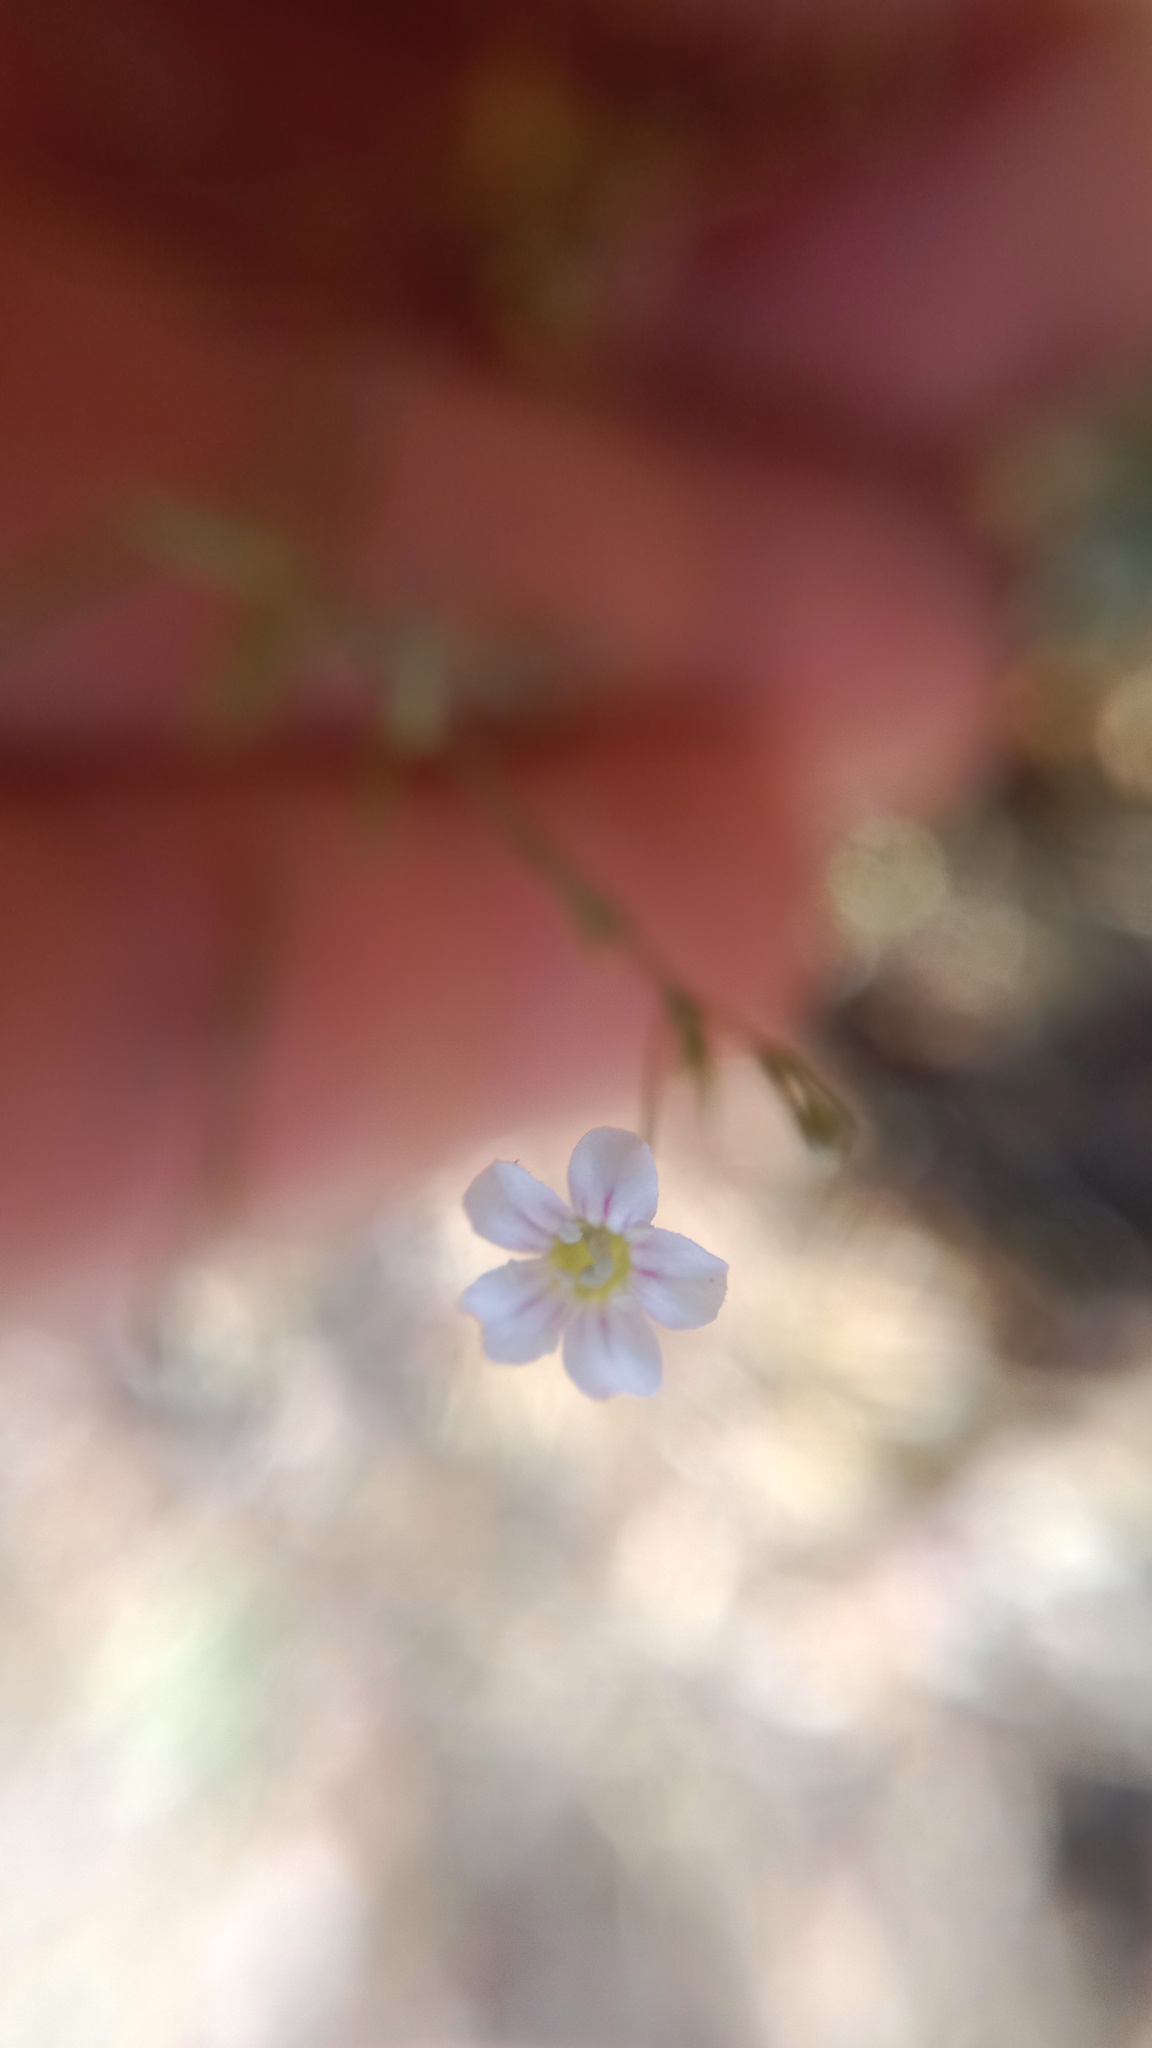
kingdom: Plantae
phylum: Tracheophyta
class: Magnoliopsida
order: Caryophyllales
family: Caryophyllaceae
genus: Psammophiliella
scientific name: Psammophiliella muralis
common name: Cushion baby's-breath
